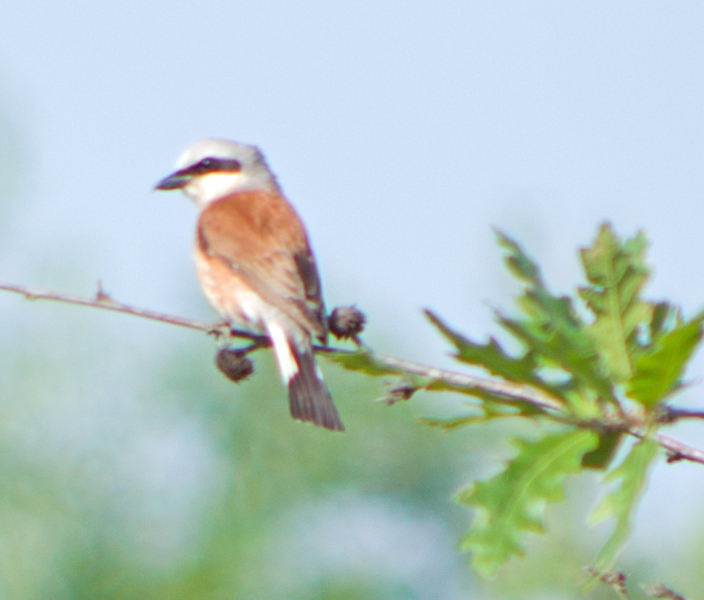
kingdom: Animalia
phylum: Chordata
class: Aves
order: Passeriformes
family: Laniidae
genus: Lanius
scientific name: Lanius collurio
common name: Red-backed shrike
